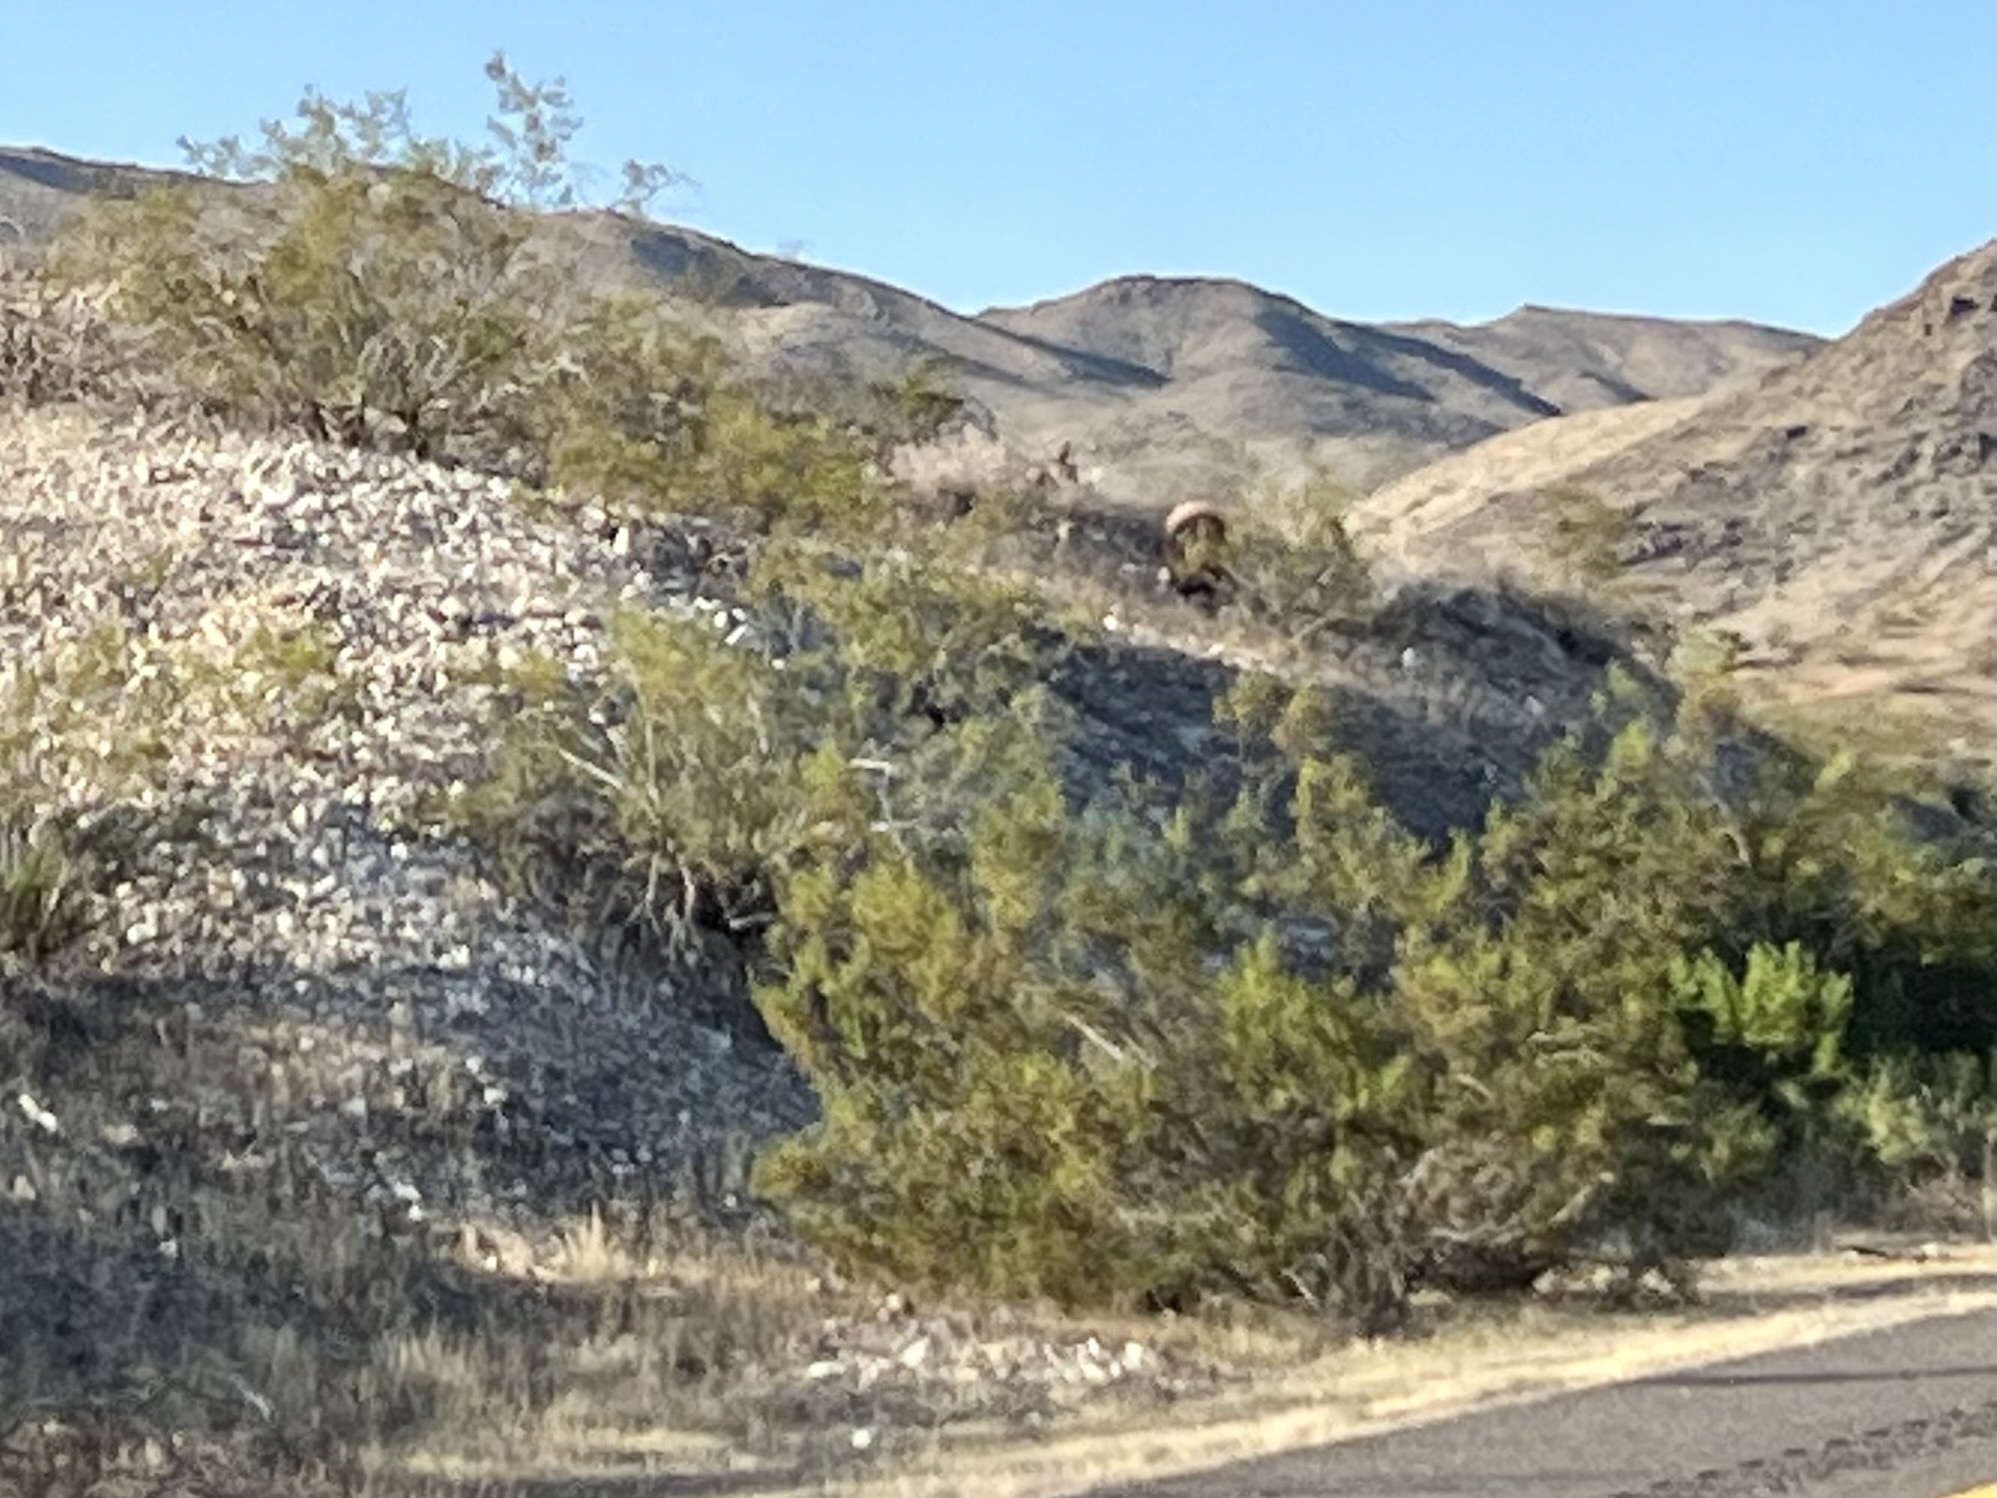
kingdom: Plantae
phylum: Tracheophyta
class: Magnoliopsida
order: Zygophyllales
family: Zygophyllaceae
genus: Larrea
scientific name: Larrea tridentata
